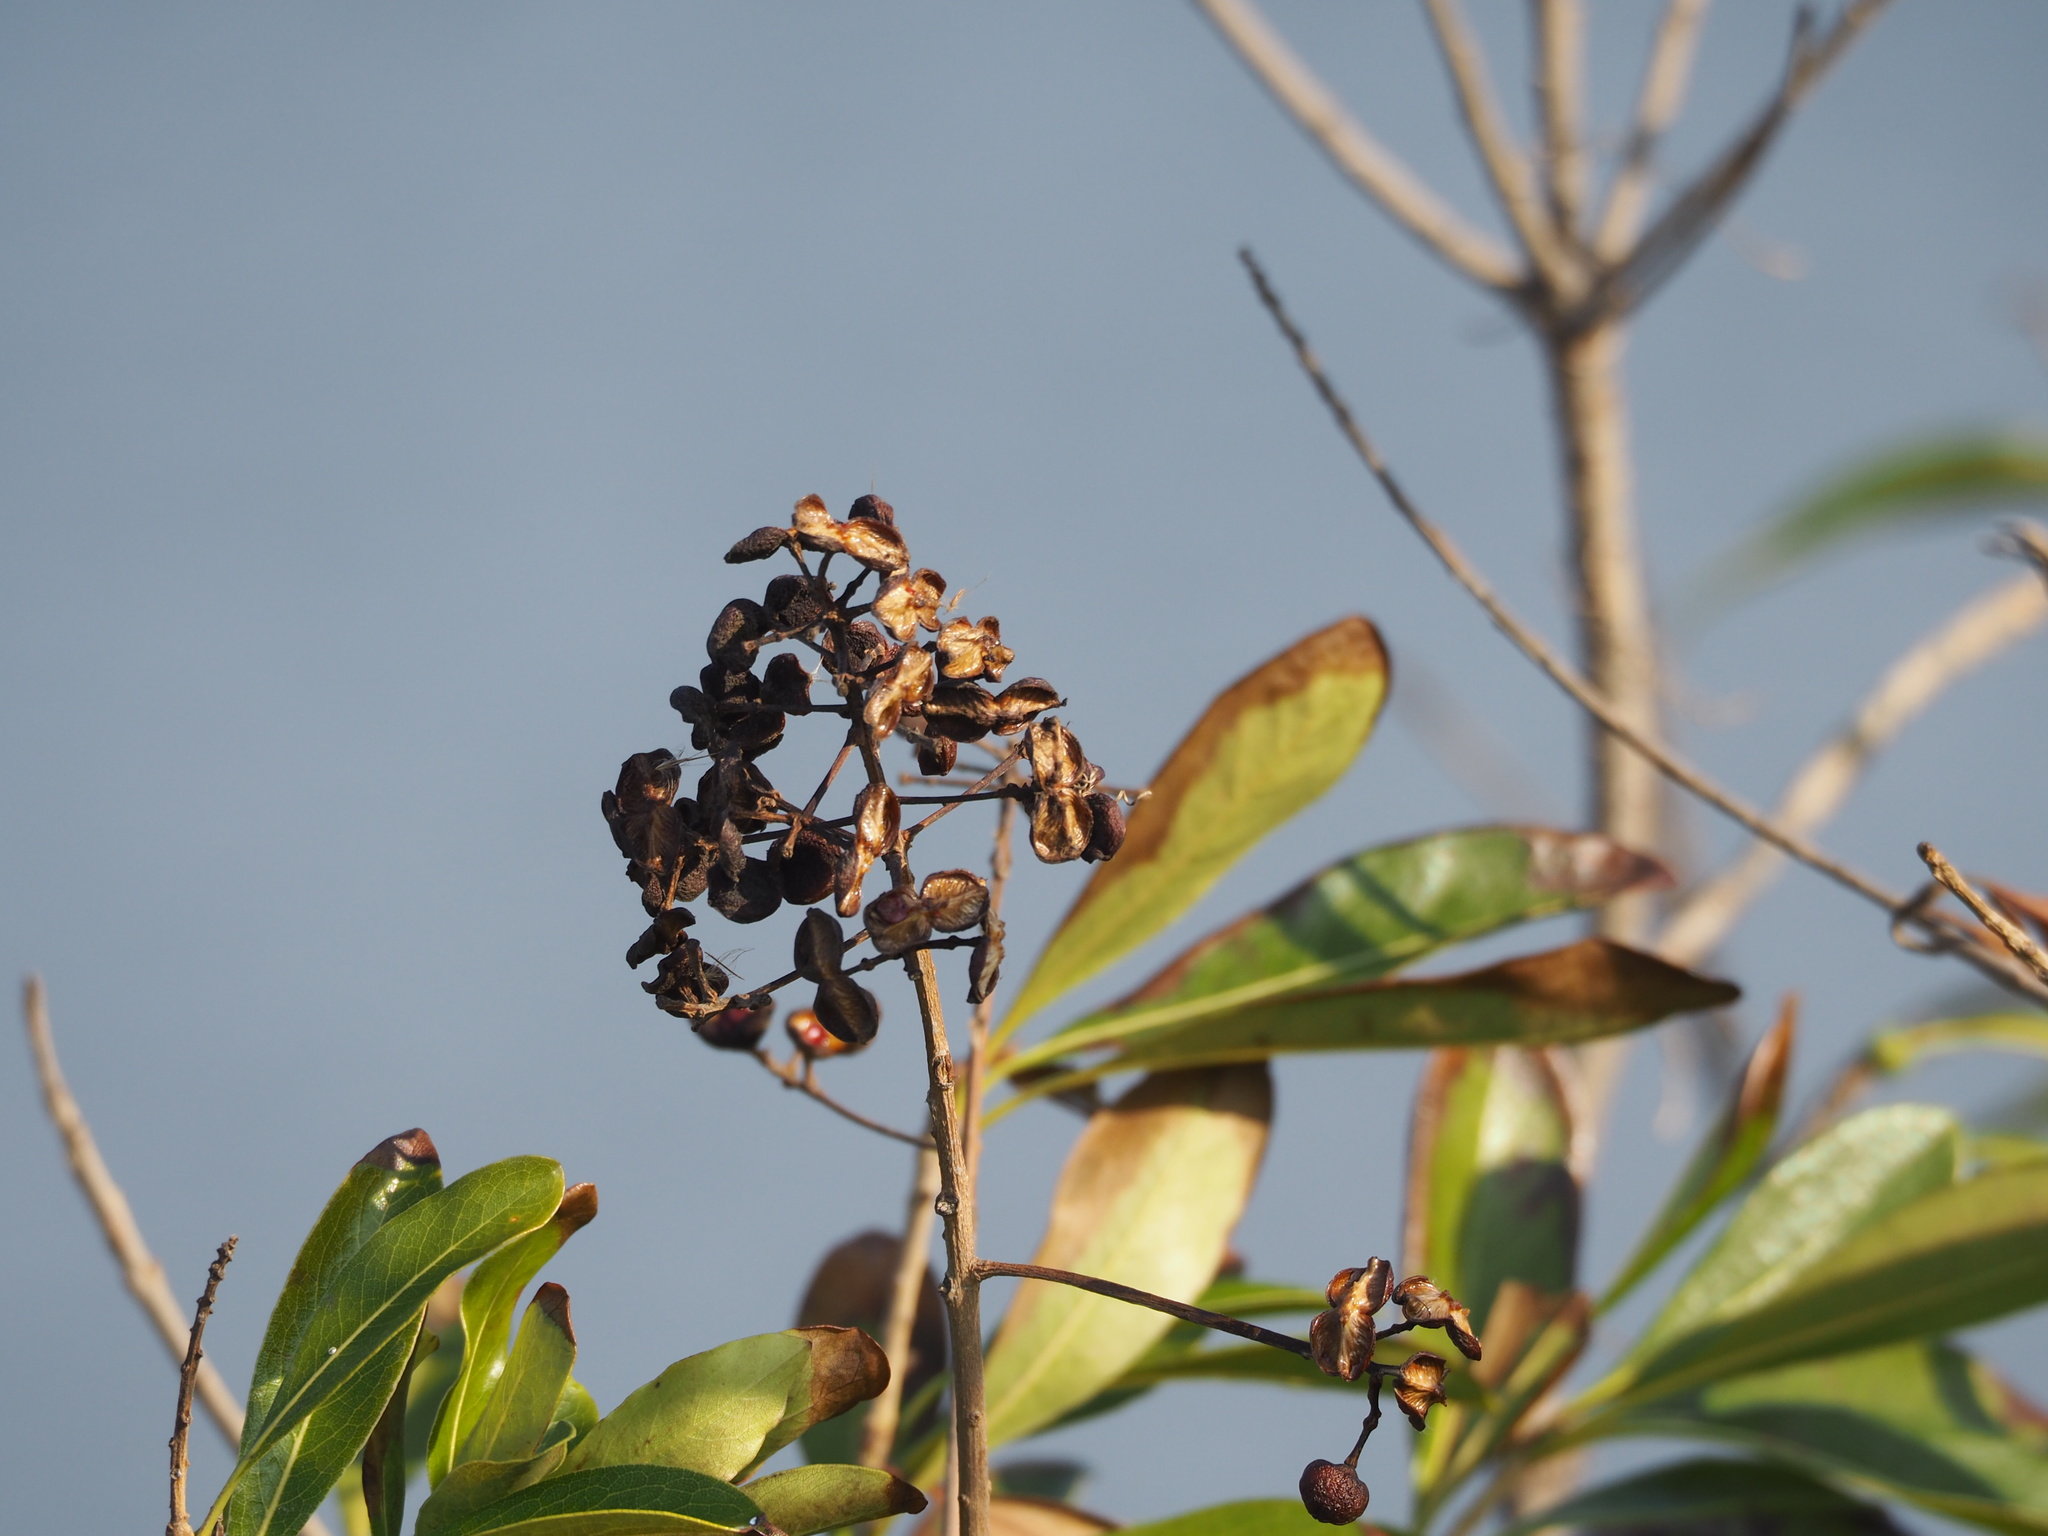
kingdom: Plantae
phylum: Tracheophyta
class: Magnoliopsida
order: Apiales
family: Pittosporaceae
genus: Pittosporum
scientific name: Pittosporum pentandrum
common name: Taiwanese cheesewood
